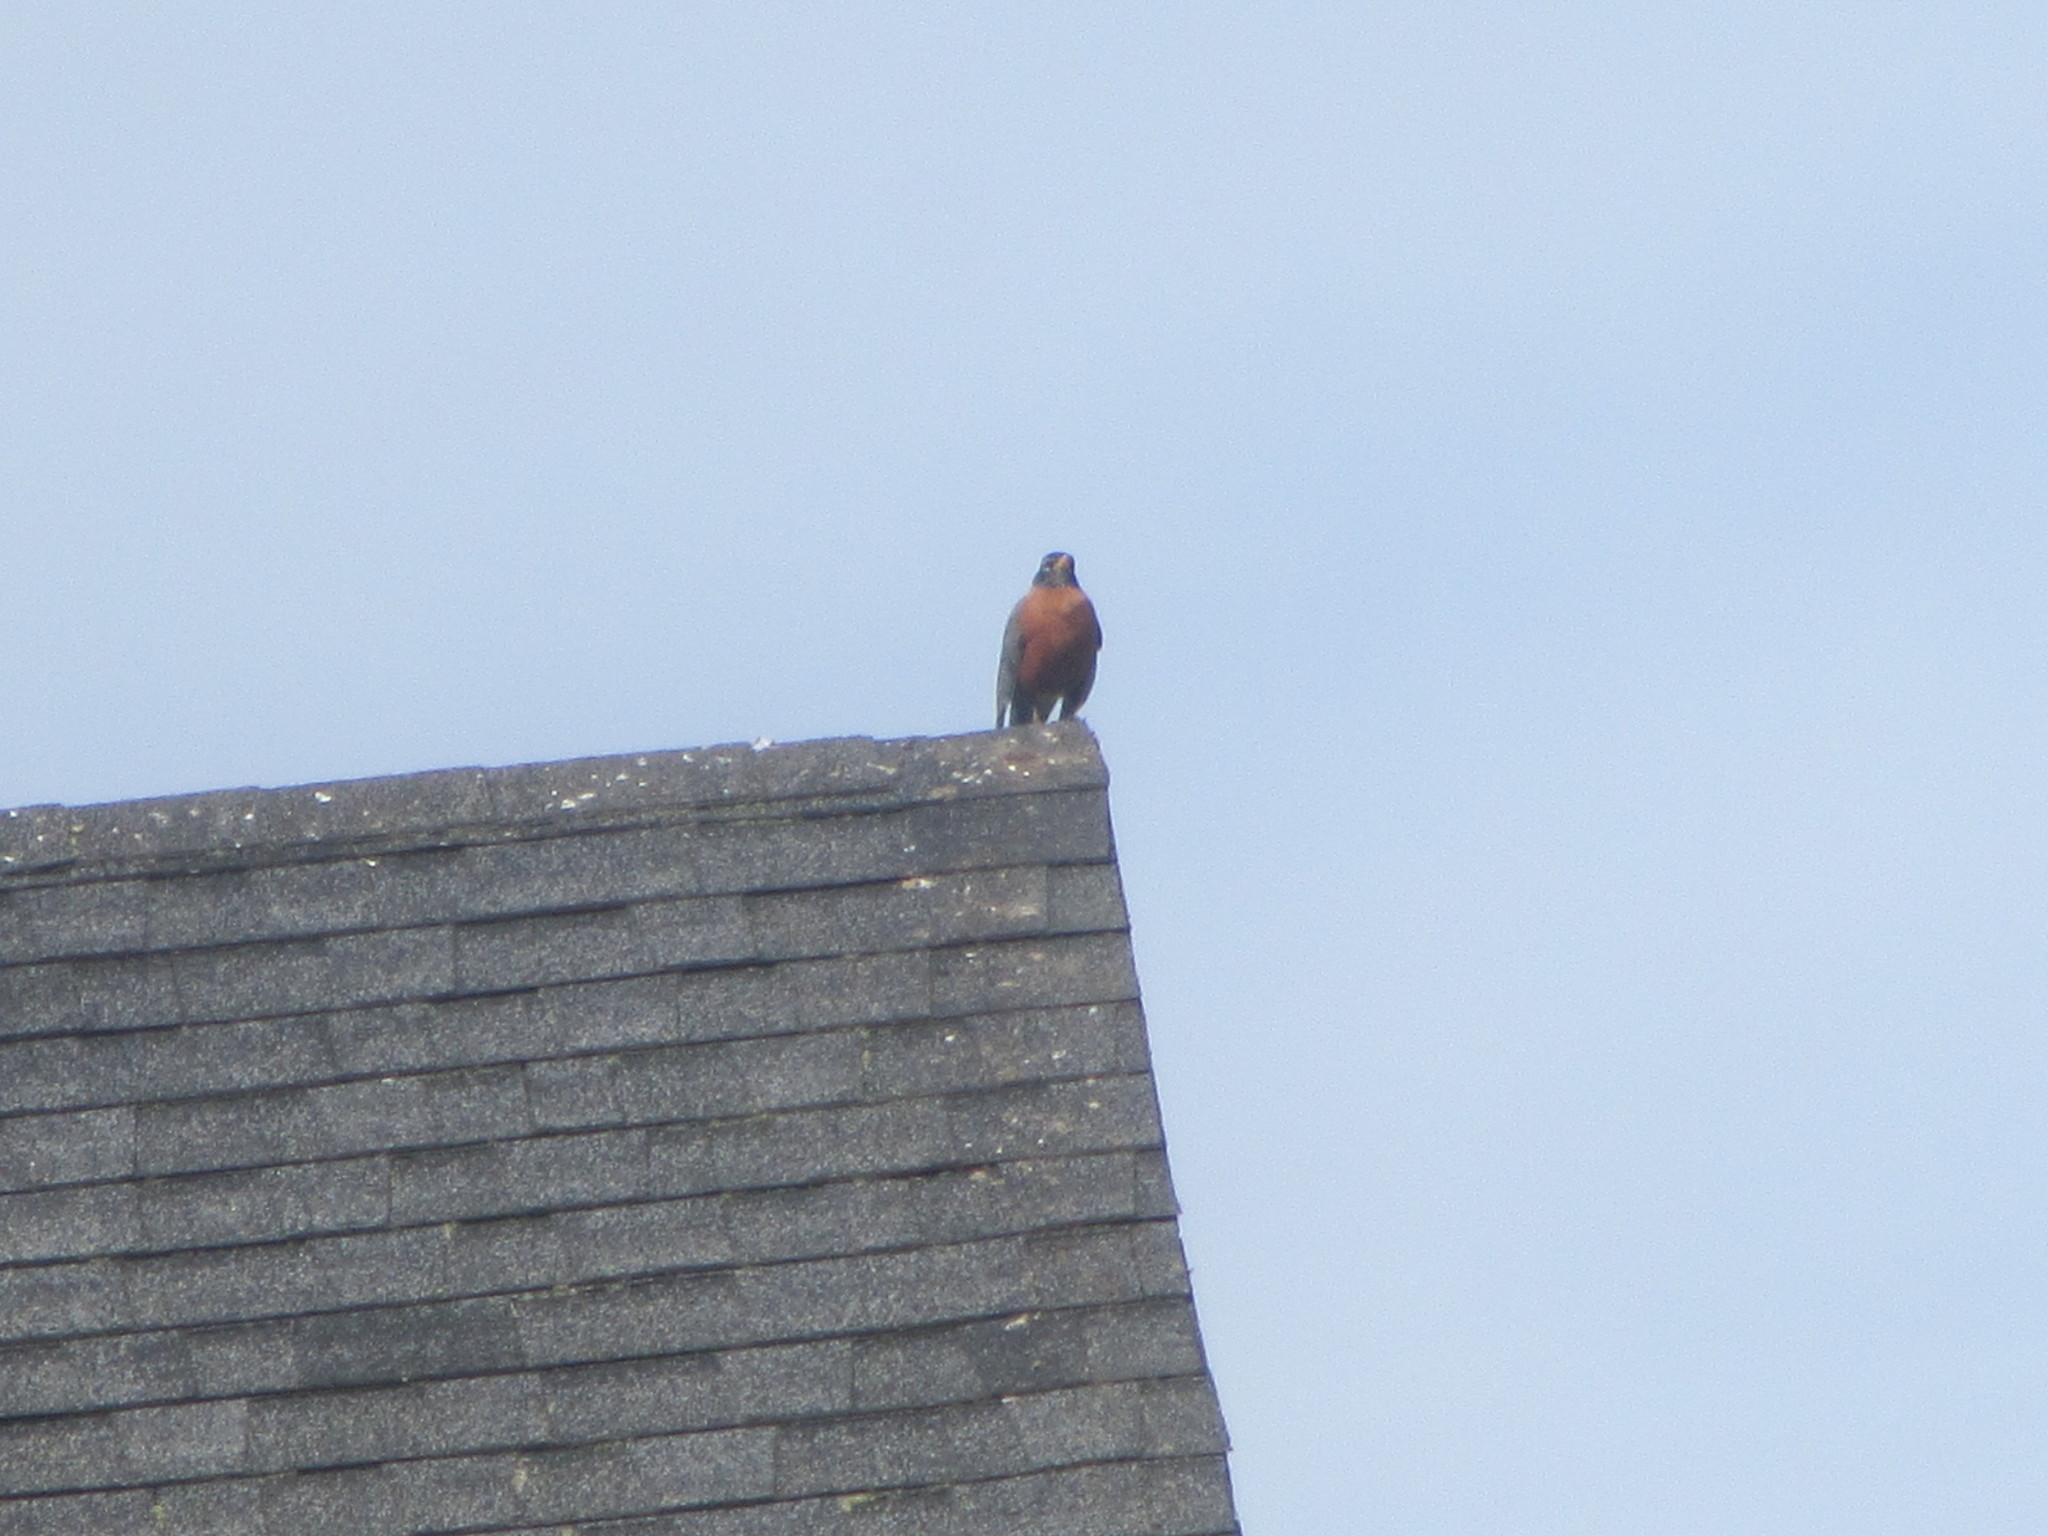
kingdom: Animalia
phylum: Chordata
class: Aves
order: Passeriformes
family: Turdidae
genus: Turdus
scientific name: Turdus migratorius
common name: American robin
